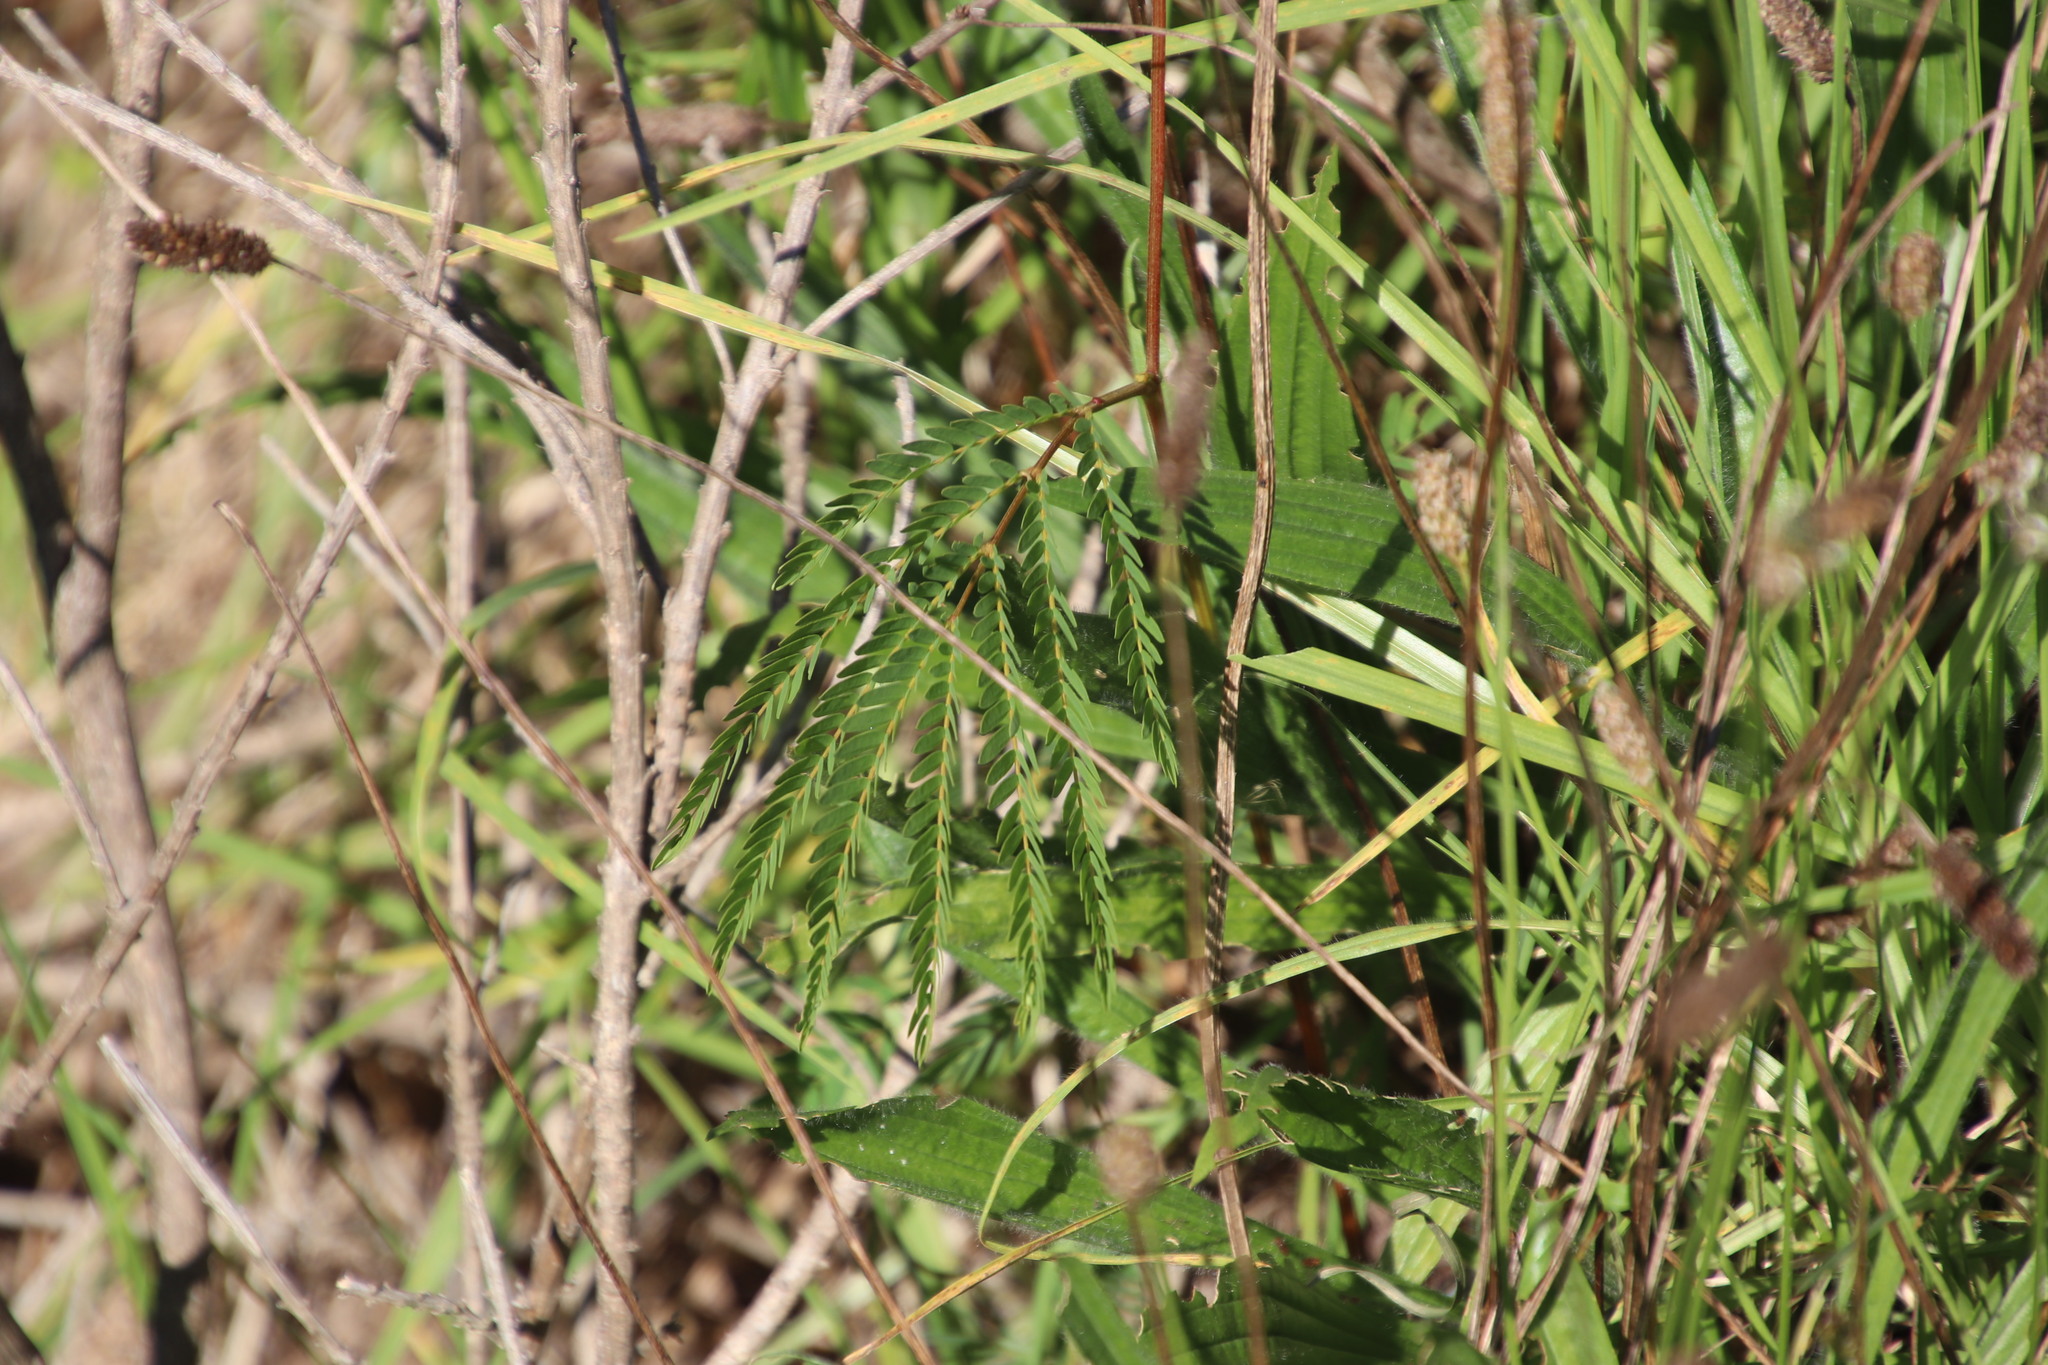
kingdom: Plantae
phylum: Tracheophyta
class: Magnoliopsida
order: Fabales
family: Fabaceae
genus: Paraserianthes
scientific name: Paraserianthes lophantha
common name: Plume albizia
